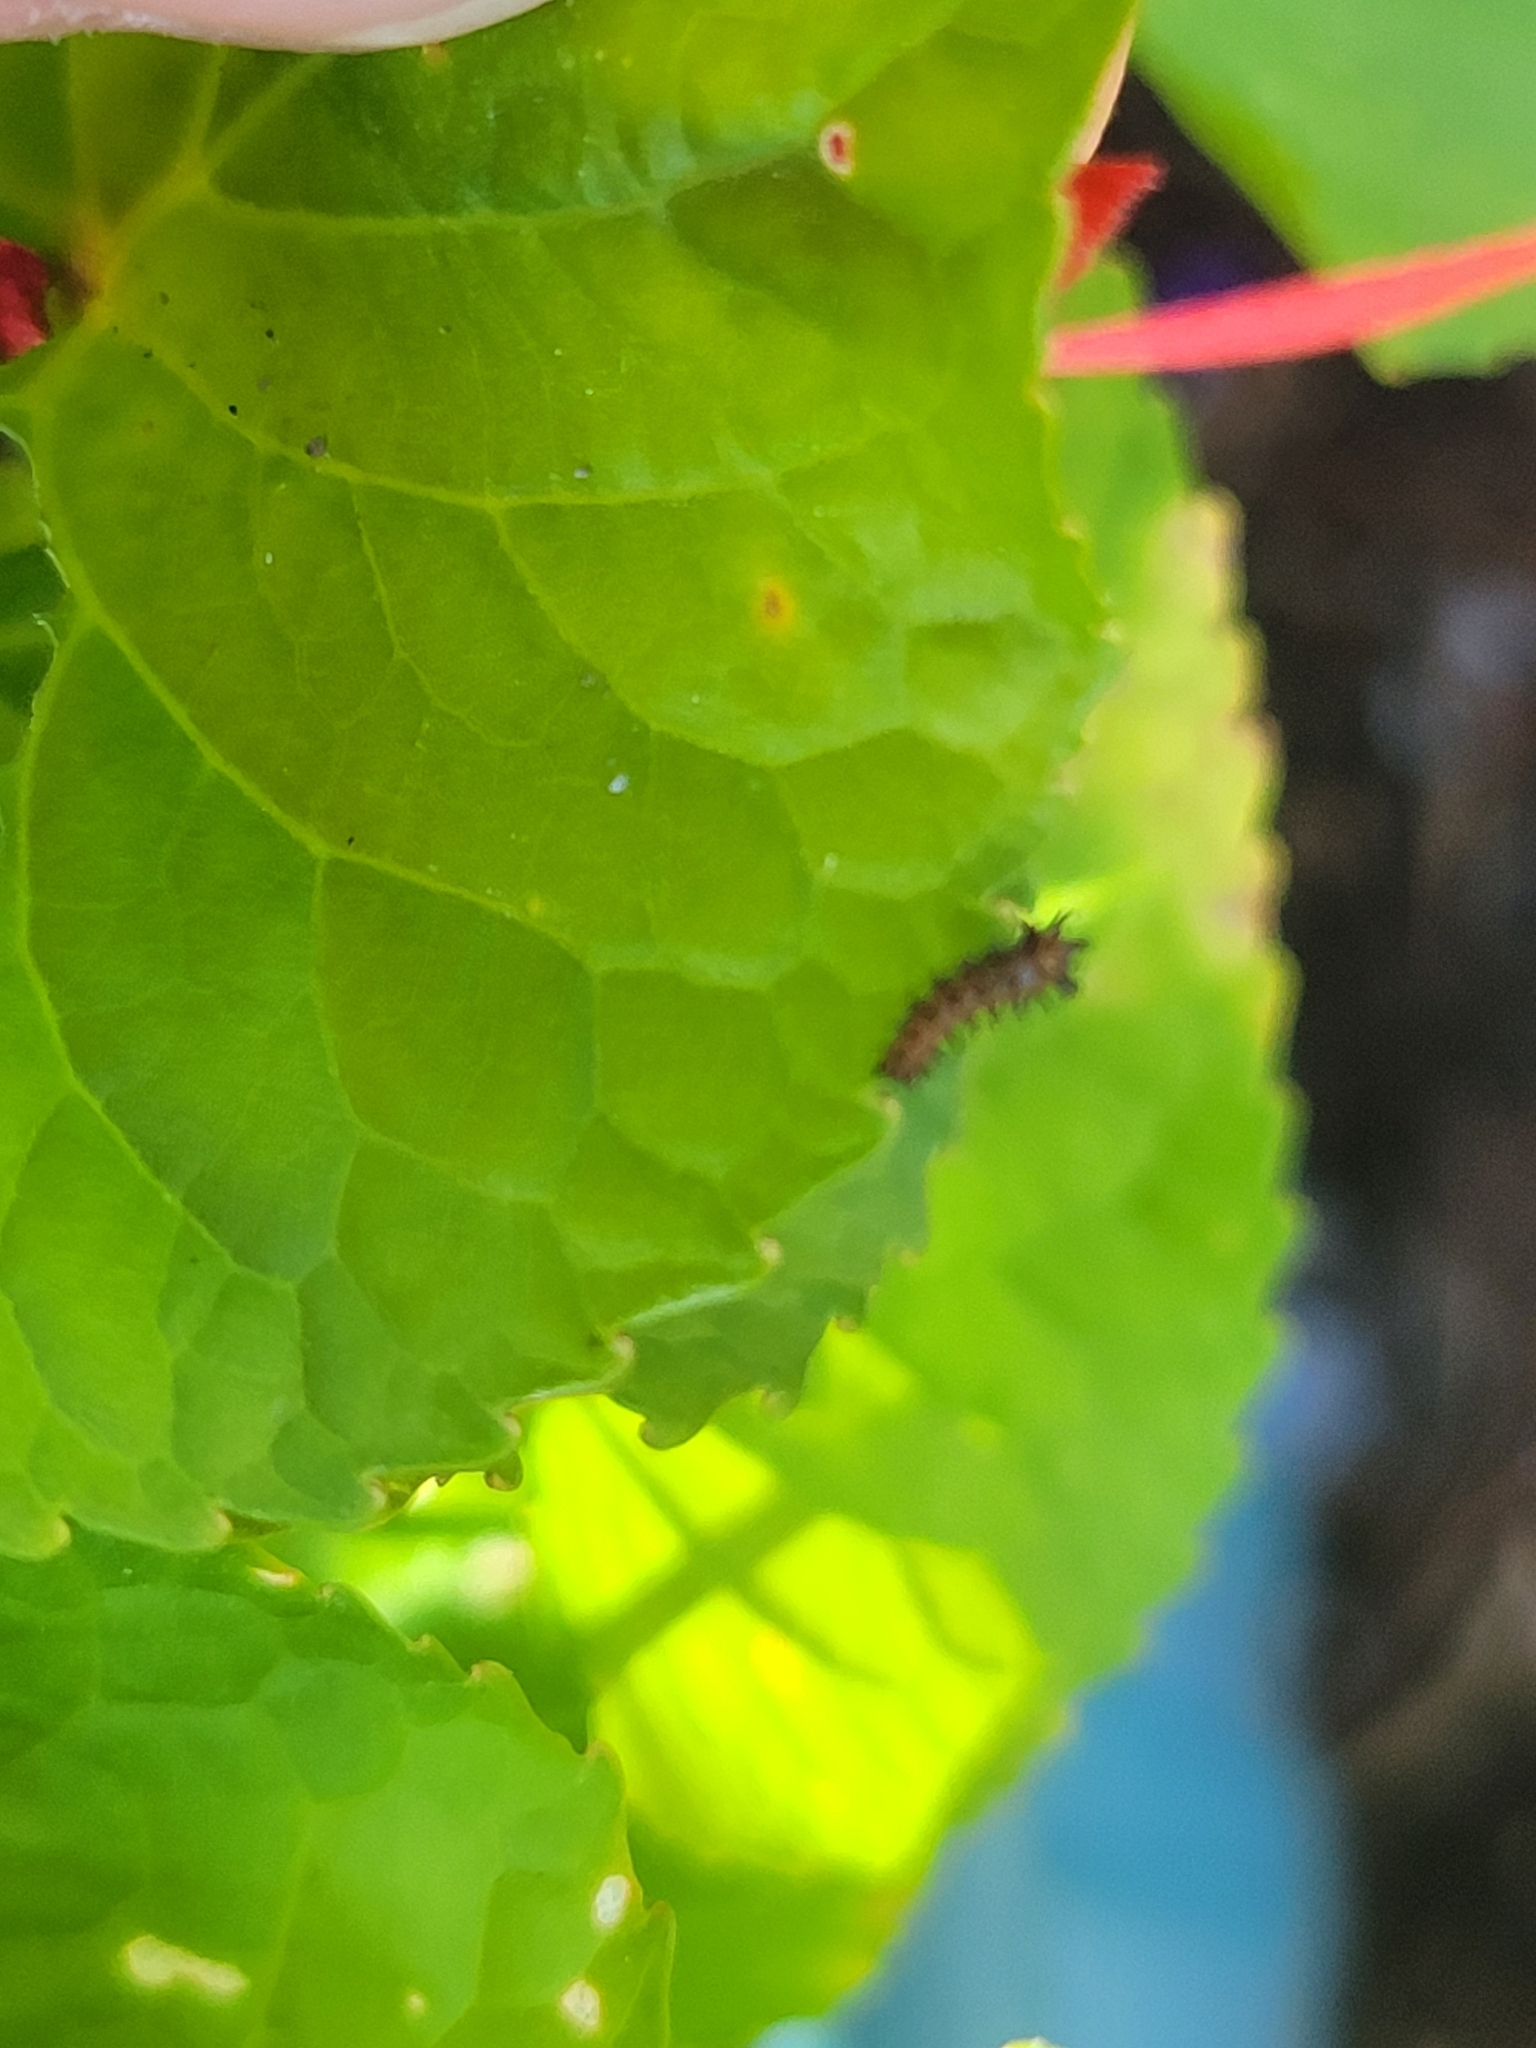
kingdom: Animalia
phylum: Arthropoda
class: Insecta
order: Lepidoptera
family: Nymphalidae
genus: Euptoieta
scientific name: Euptoieta claudia
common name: Variegated fritillary
